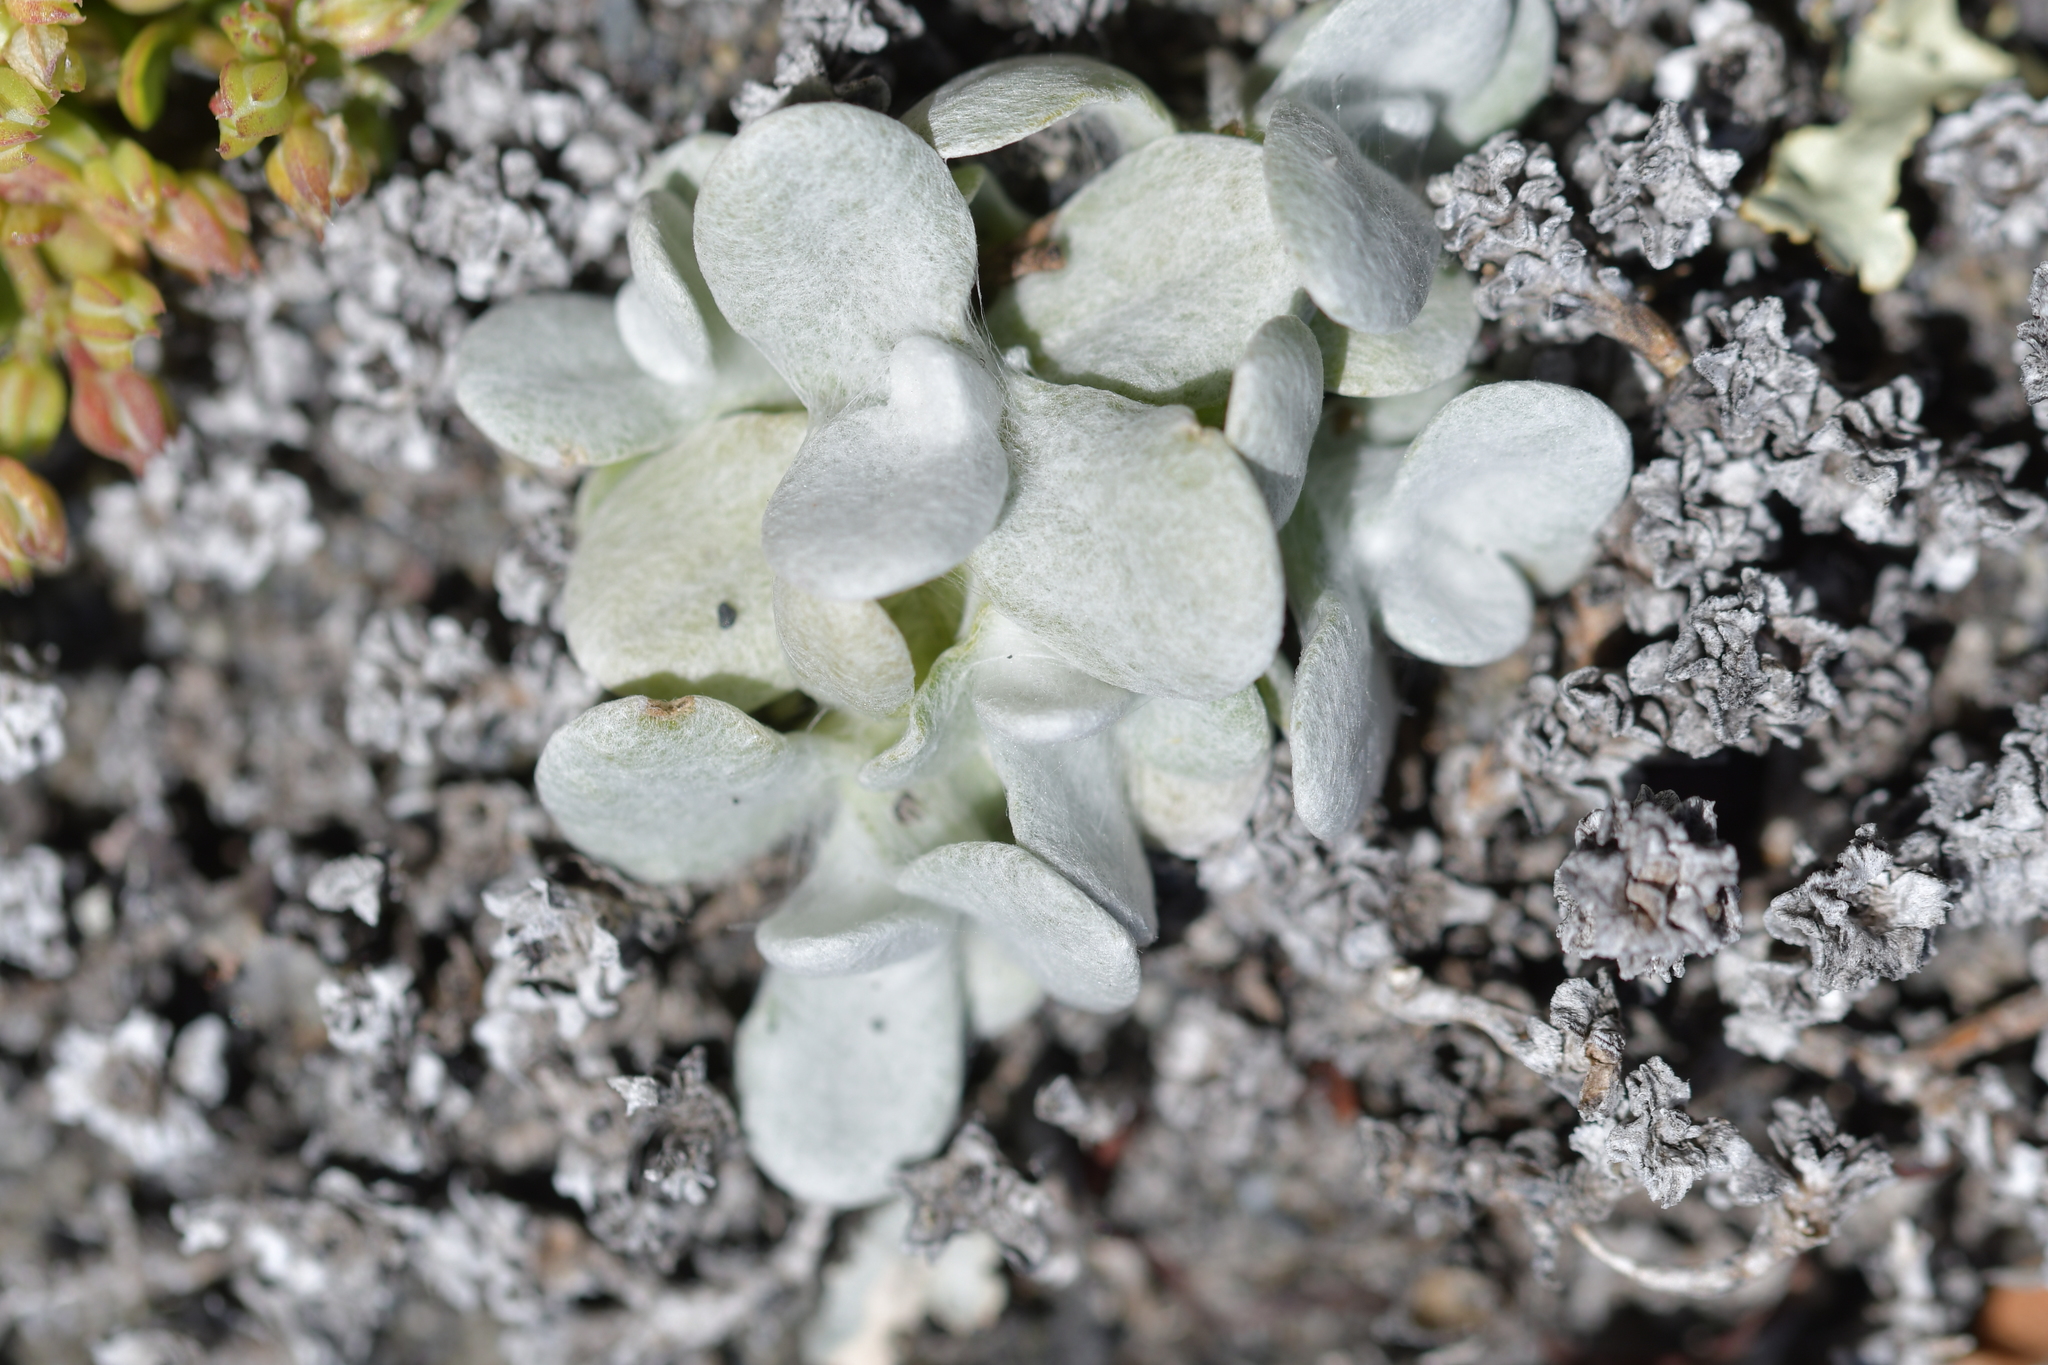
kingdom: Plantae
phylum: Tracheophyta
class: Magnoliopsida
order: Asterales
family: Asteraceae
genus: Helichrysum
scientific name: Helichrysum luteoalbum
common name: Daisy
